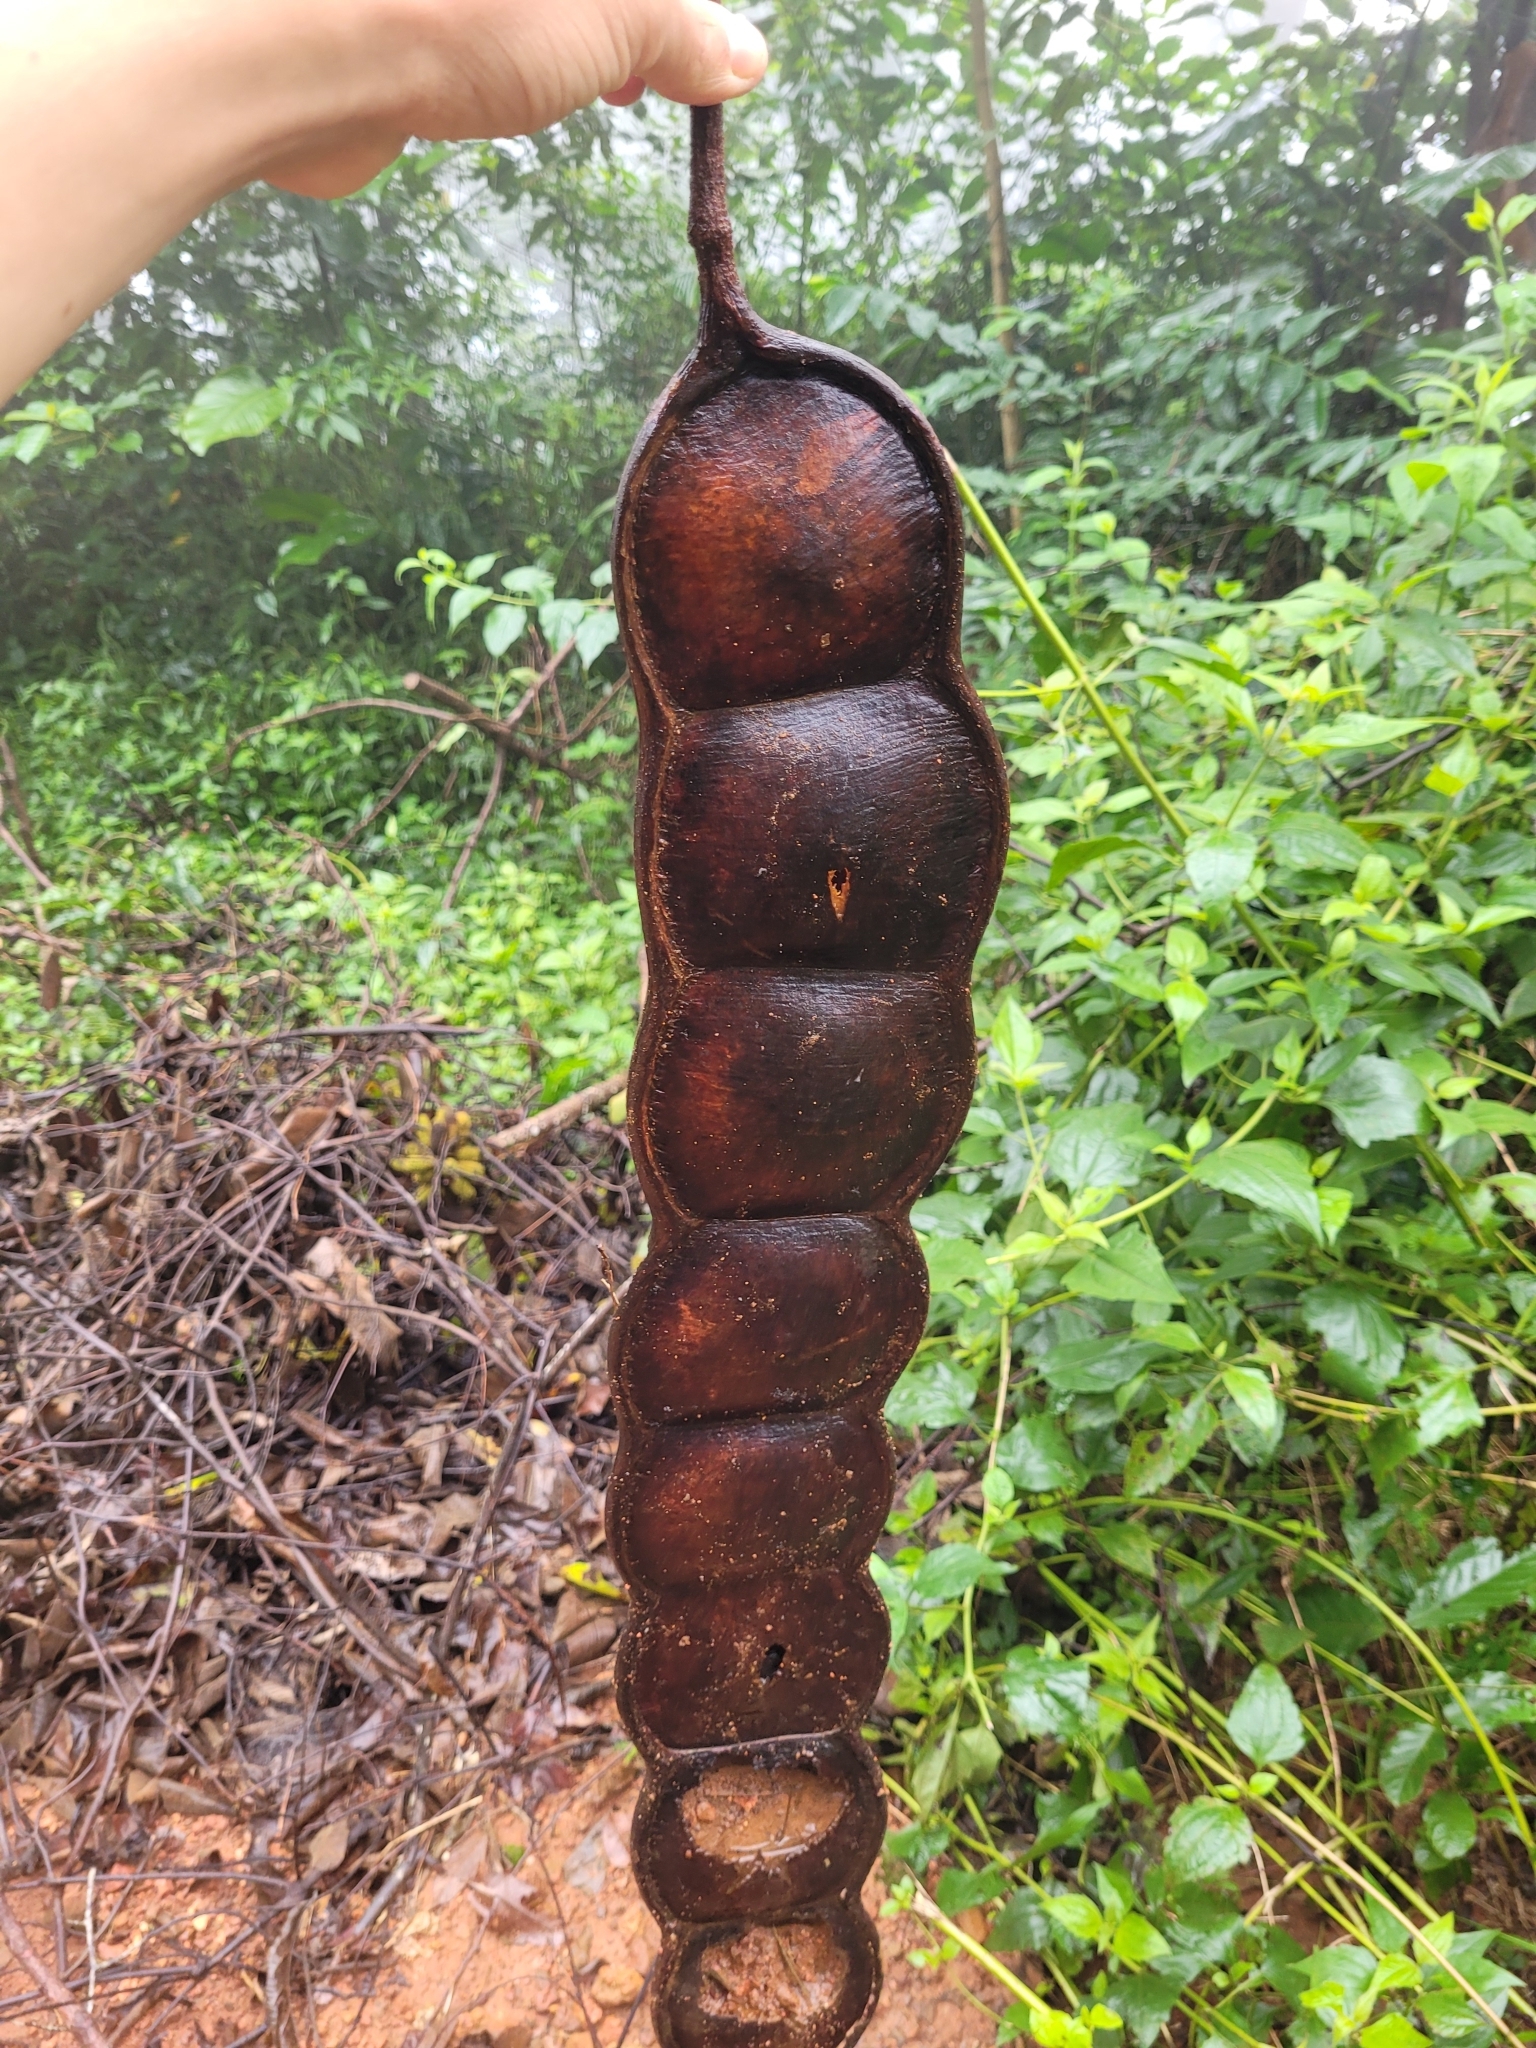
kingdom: Plantae
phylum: Tracheophyta
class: Magnoliopsida
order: Fabales
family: Fabaceae
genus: Entada
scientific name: Entada rheedei
